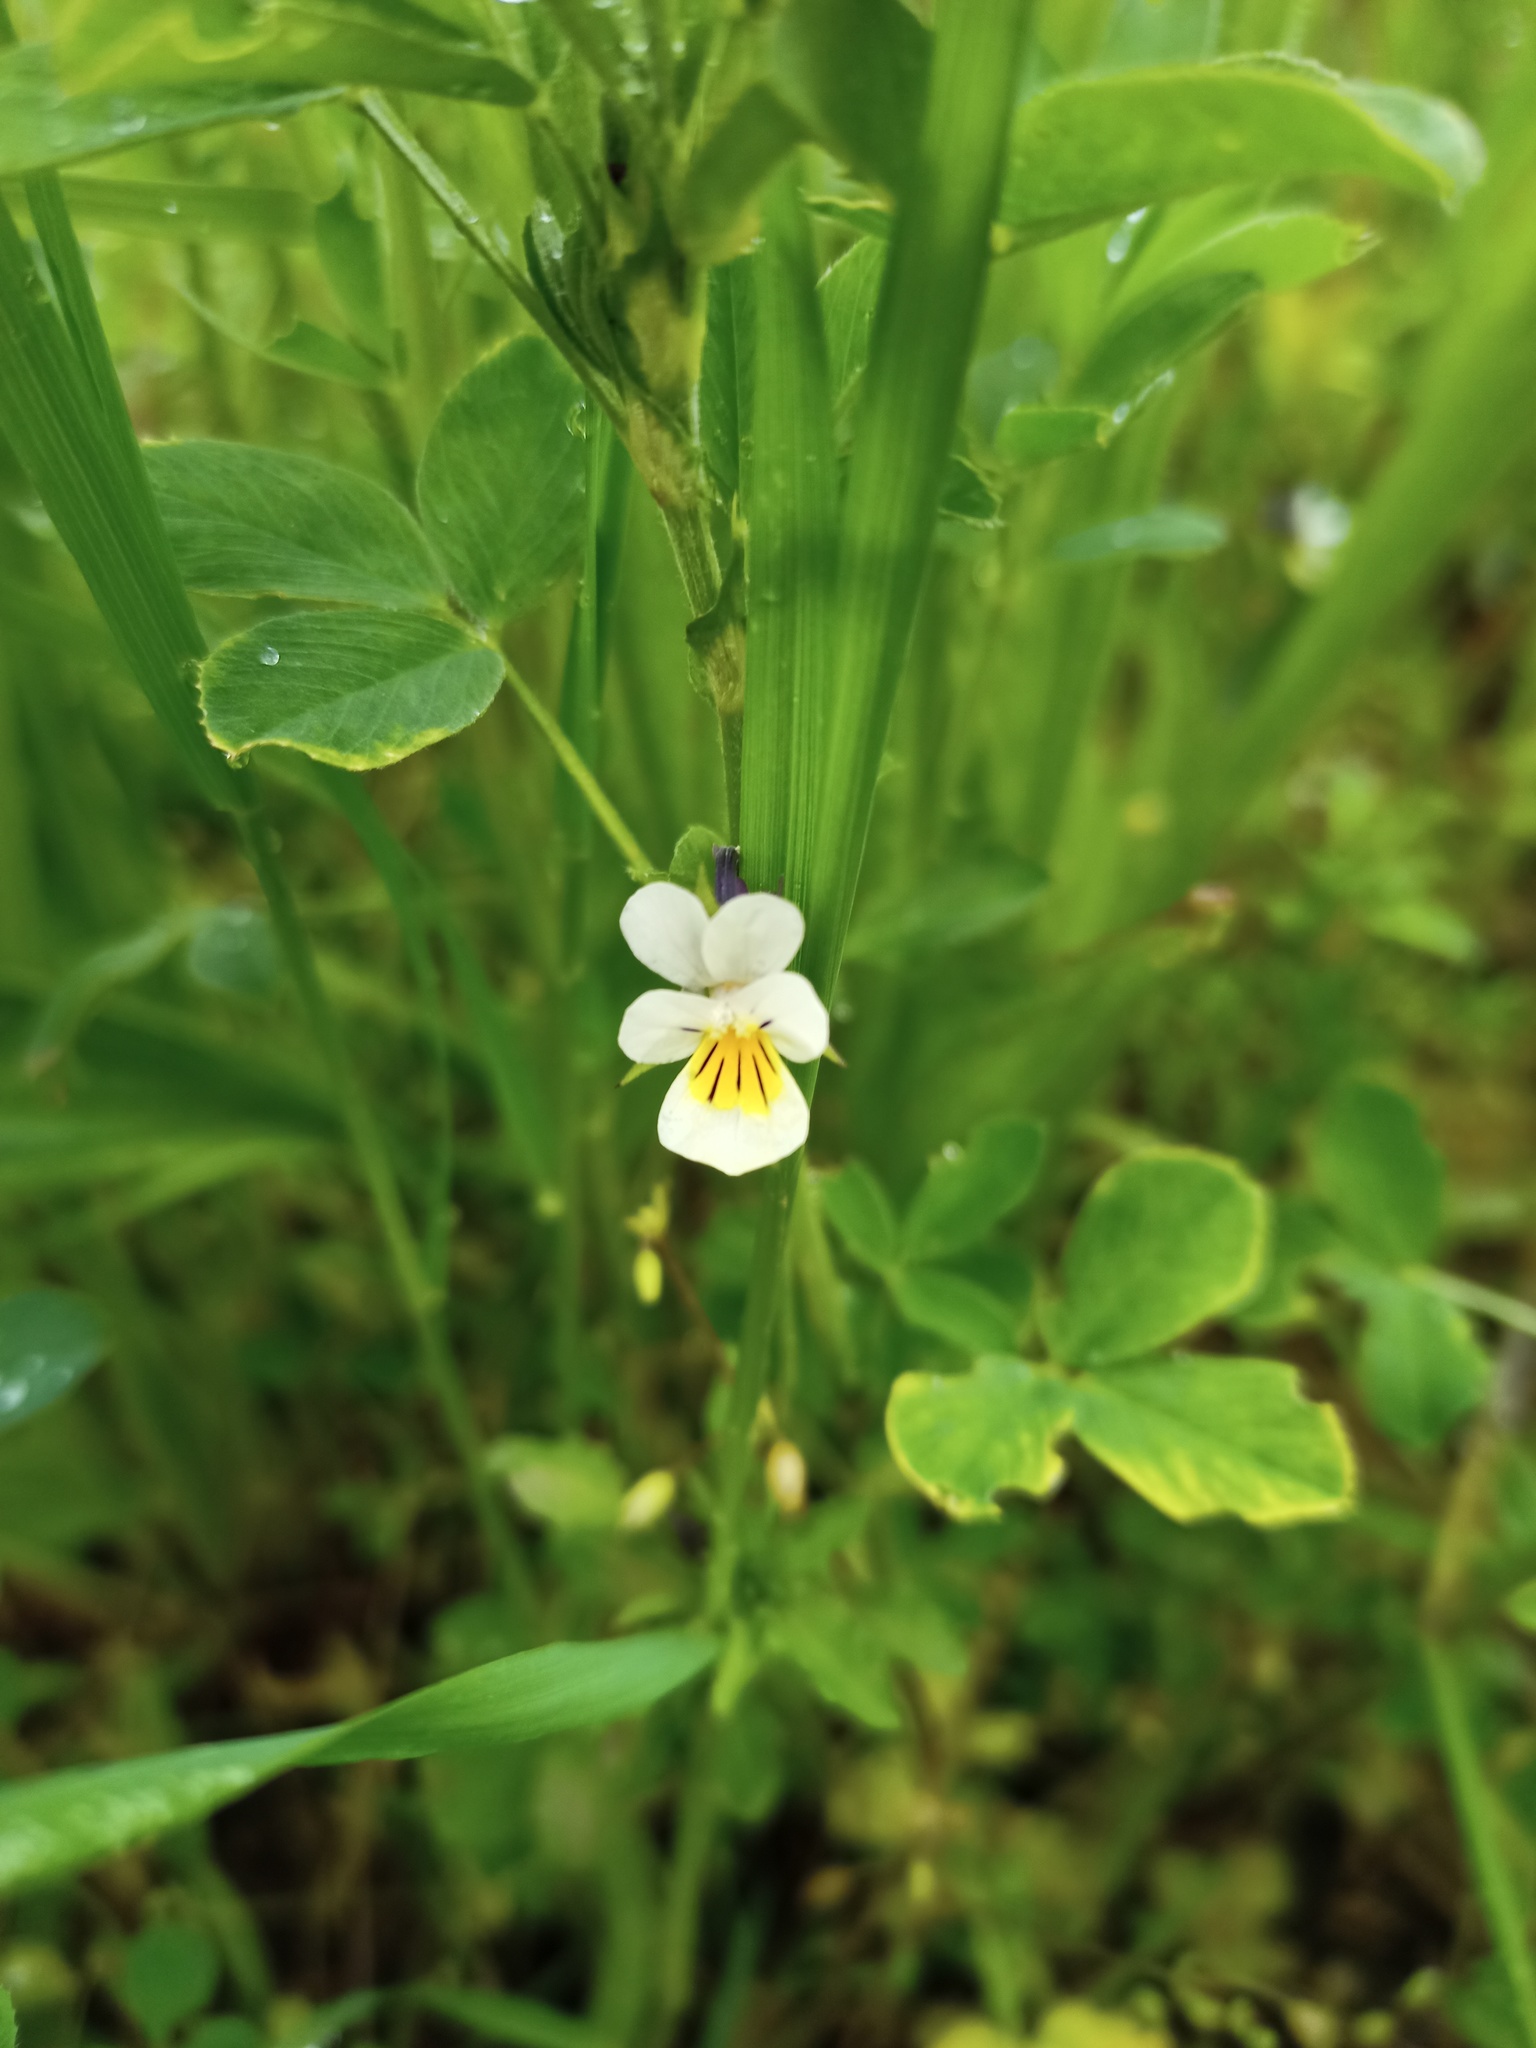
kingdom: Plantae
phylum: Tracheophyta
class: Magnoliopsida
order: Malpighiales
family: Violaceae
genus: Viola
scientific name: Viola arvensis
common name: Field pansy
